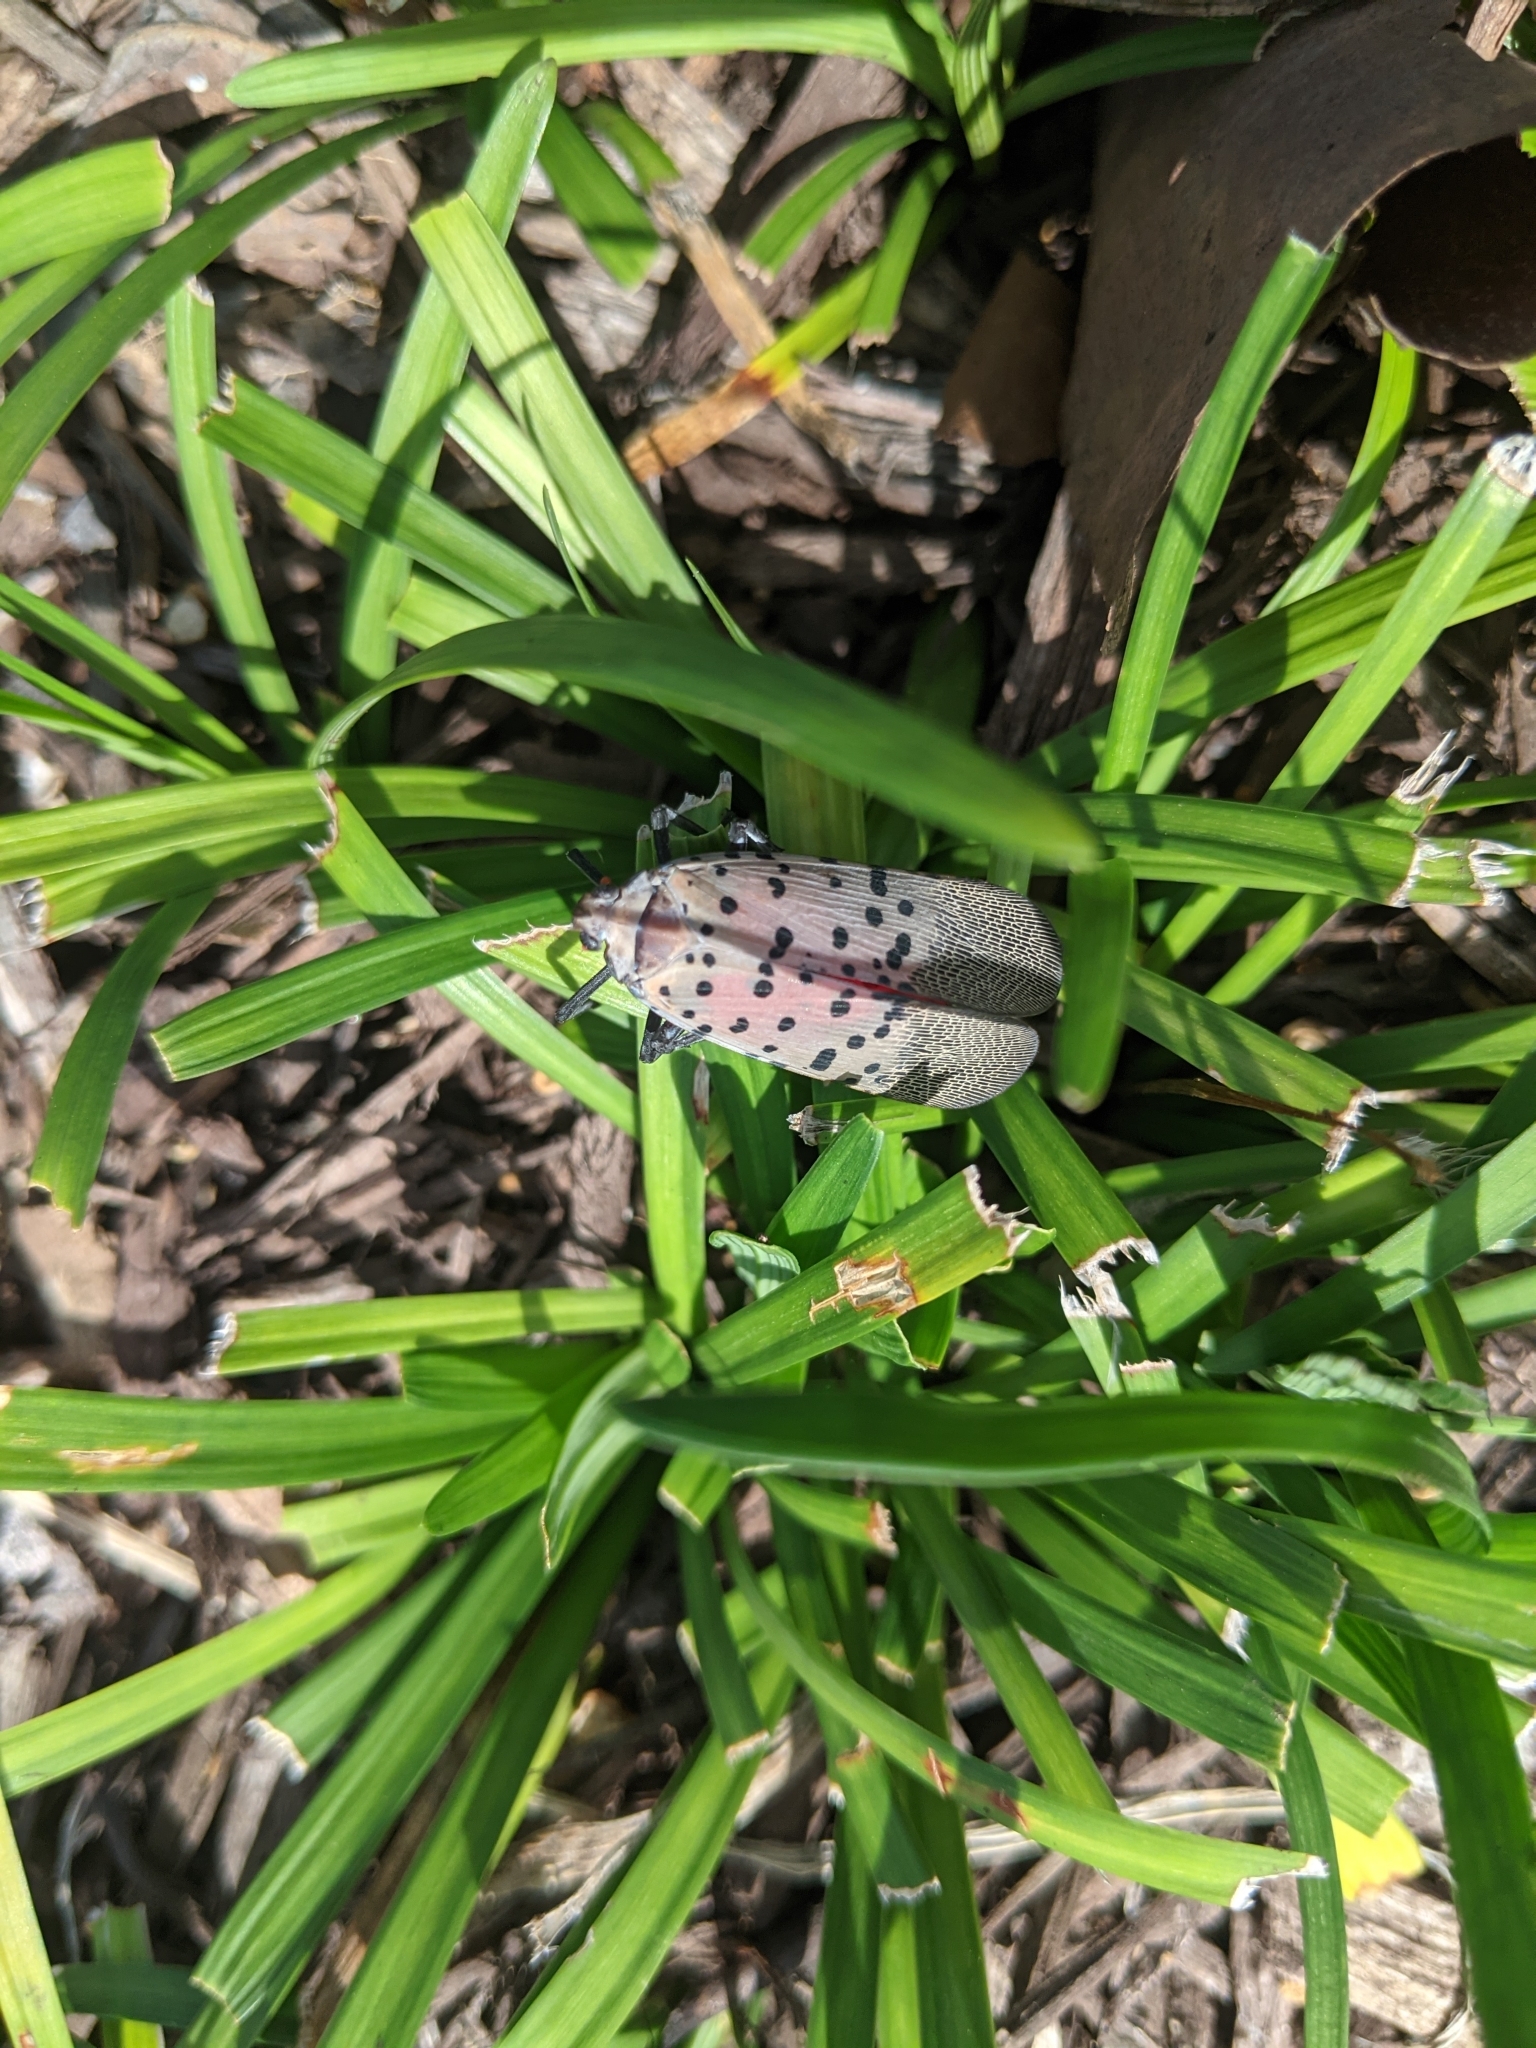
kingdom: Animalia
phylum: Arthropoda
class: Insecta
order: Hemiptera
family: Fulgoridae
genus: Lycorma
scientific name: Lycorma delicatula
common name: Spotted lanternfly
